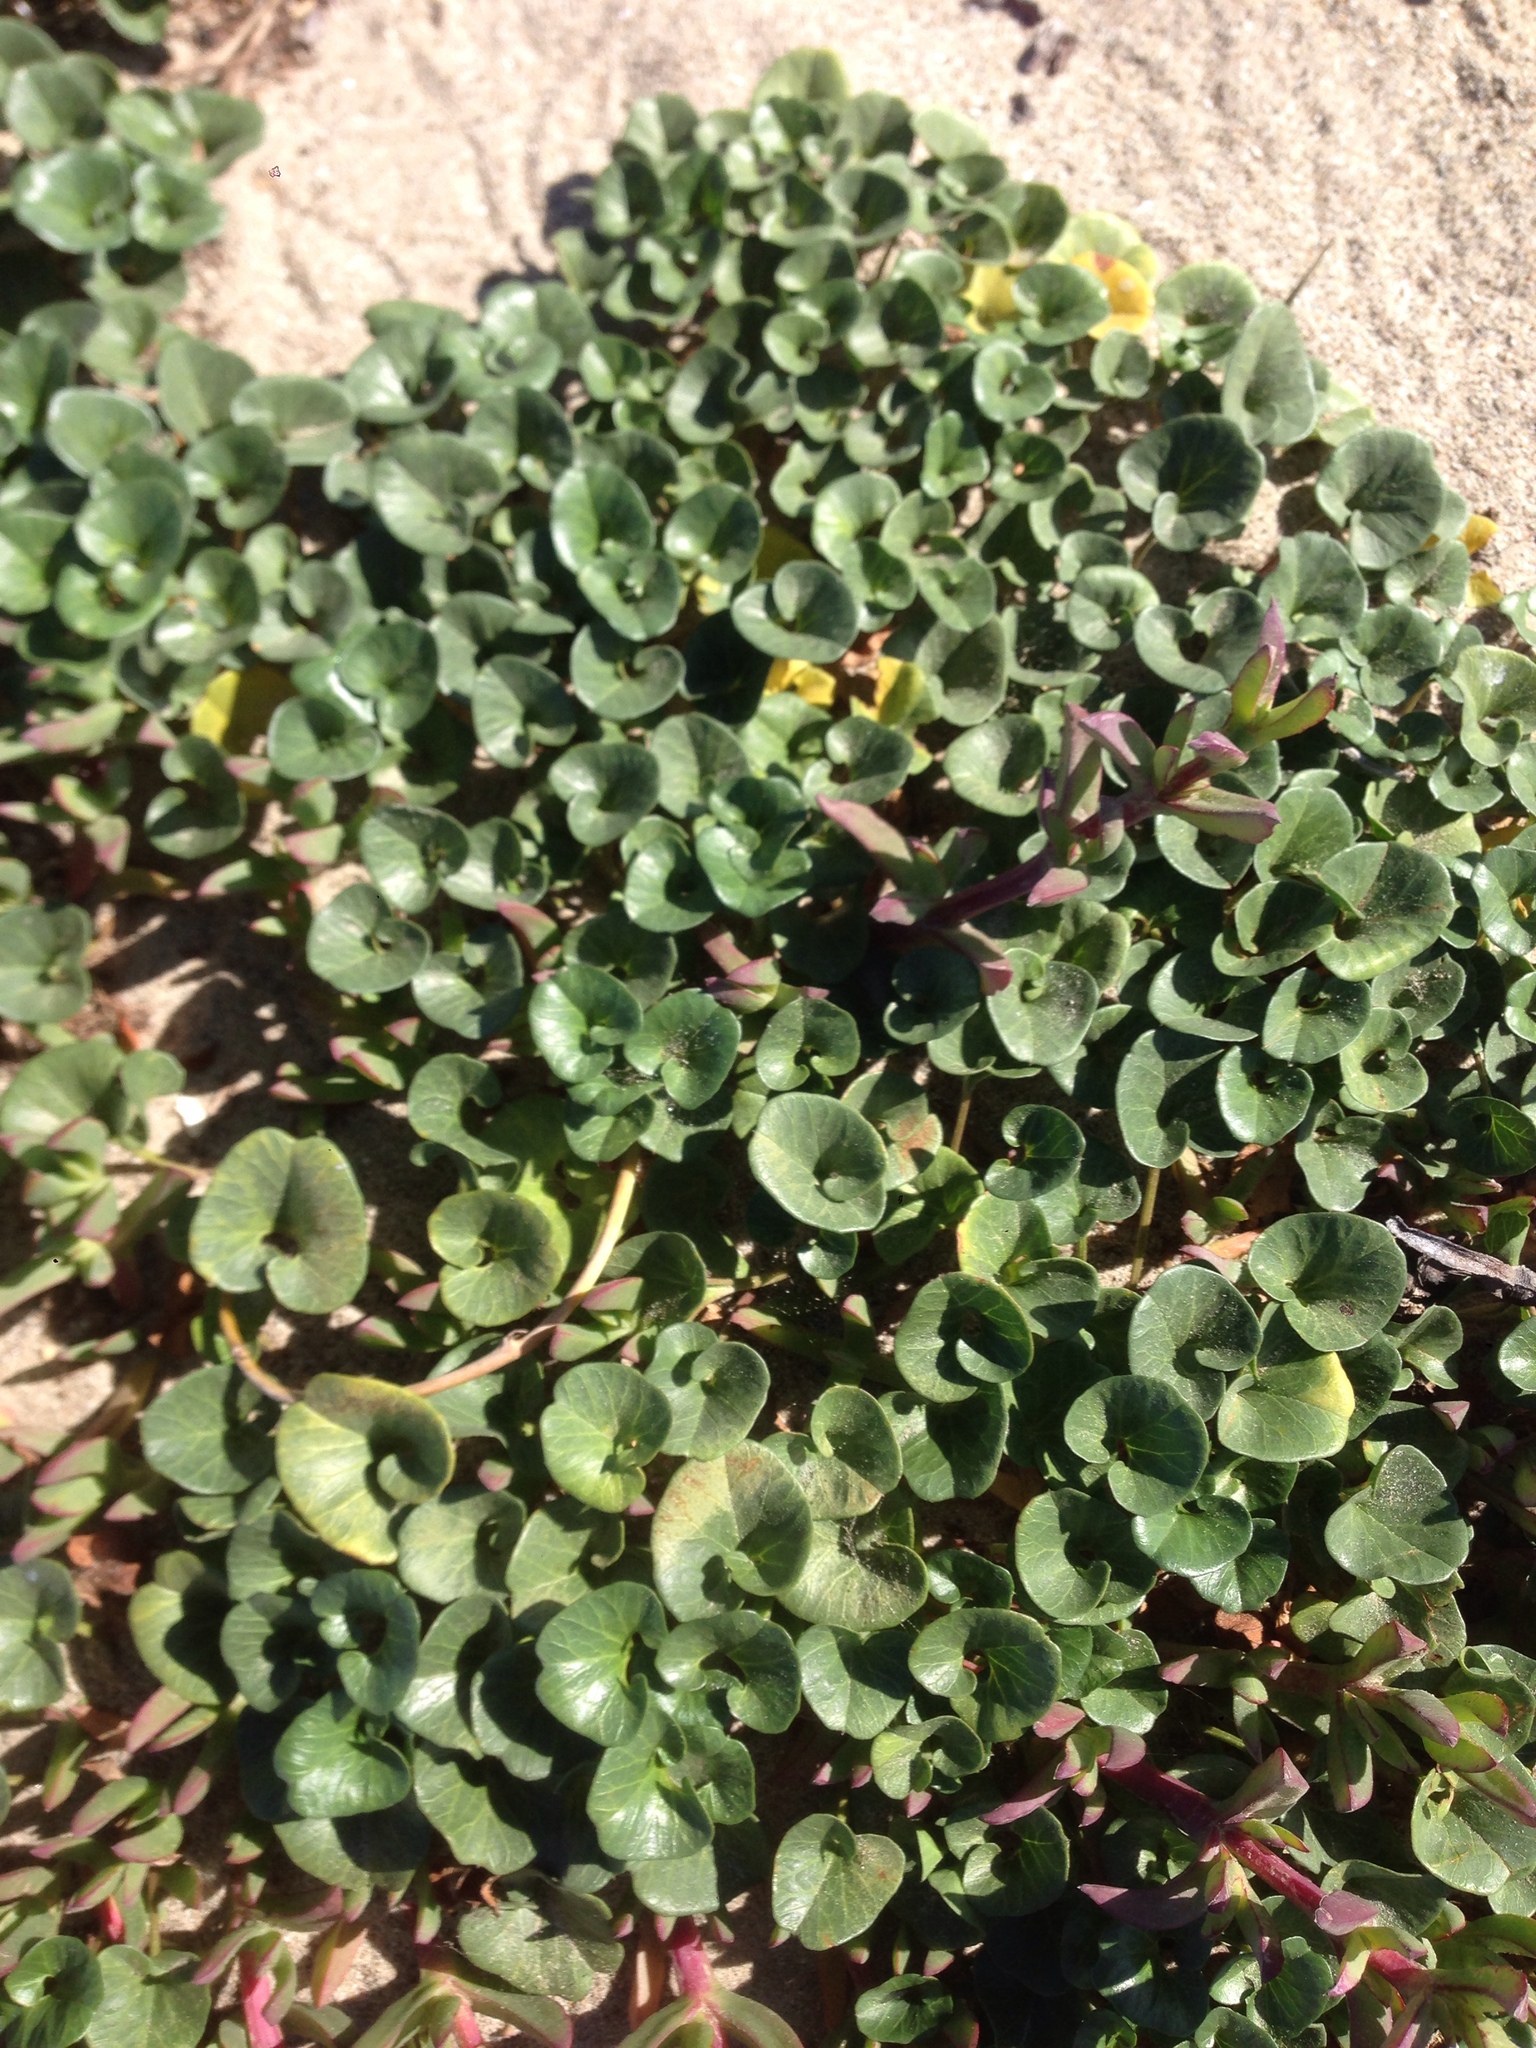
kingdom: Plantae
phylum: Tracheophyta
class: Magnoliopsida
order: Solanales
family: Convolvulaceae
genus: Calystegia
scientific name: Calystegia soldanella
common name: Sea bindweed
